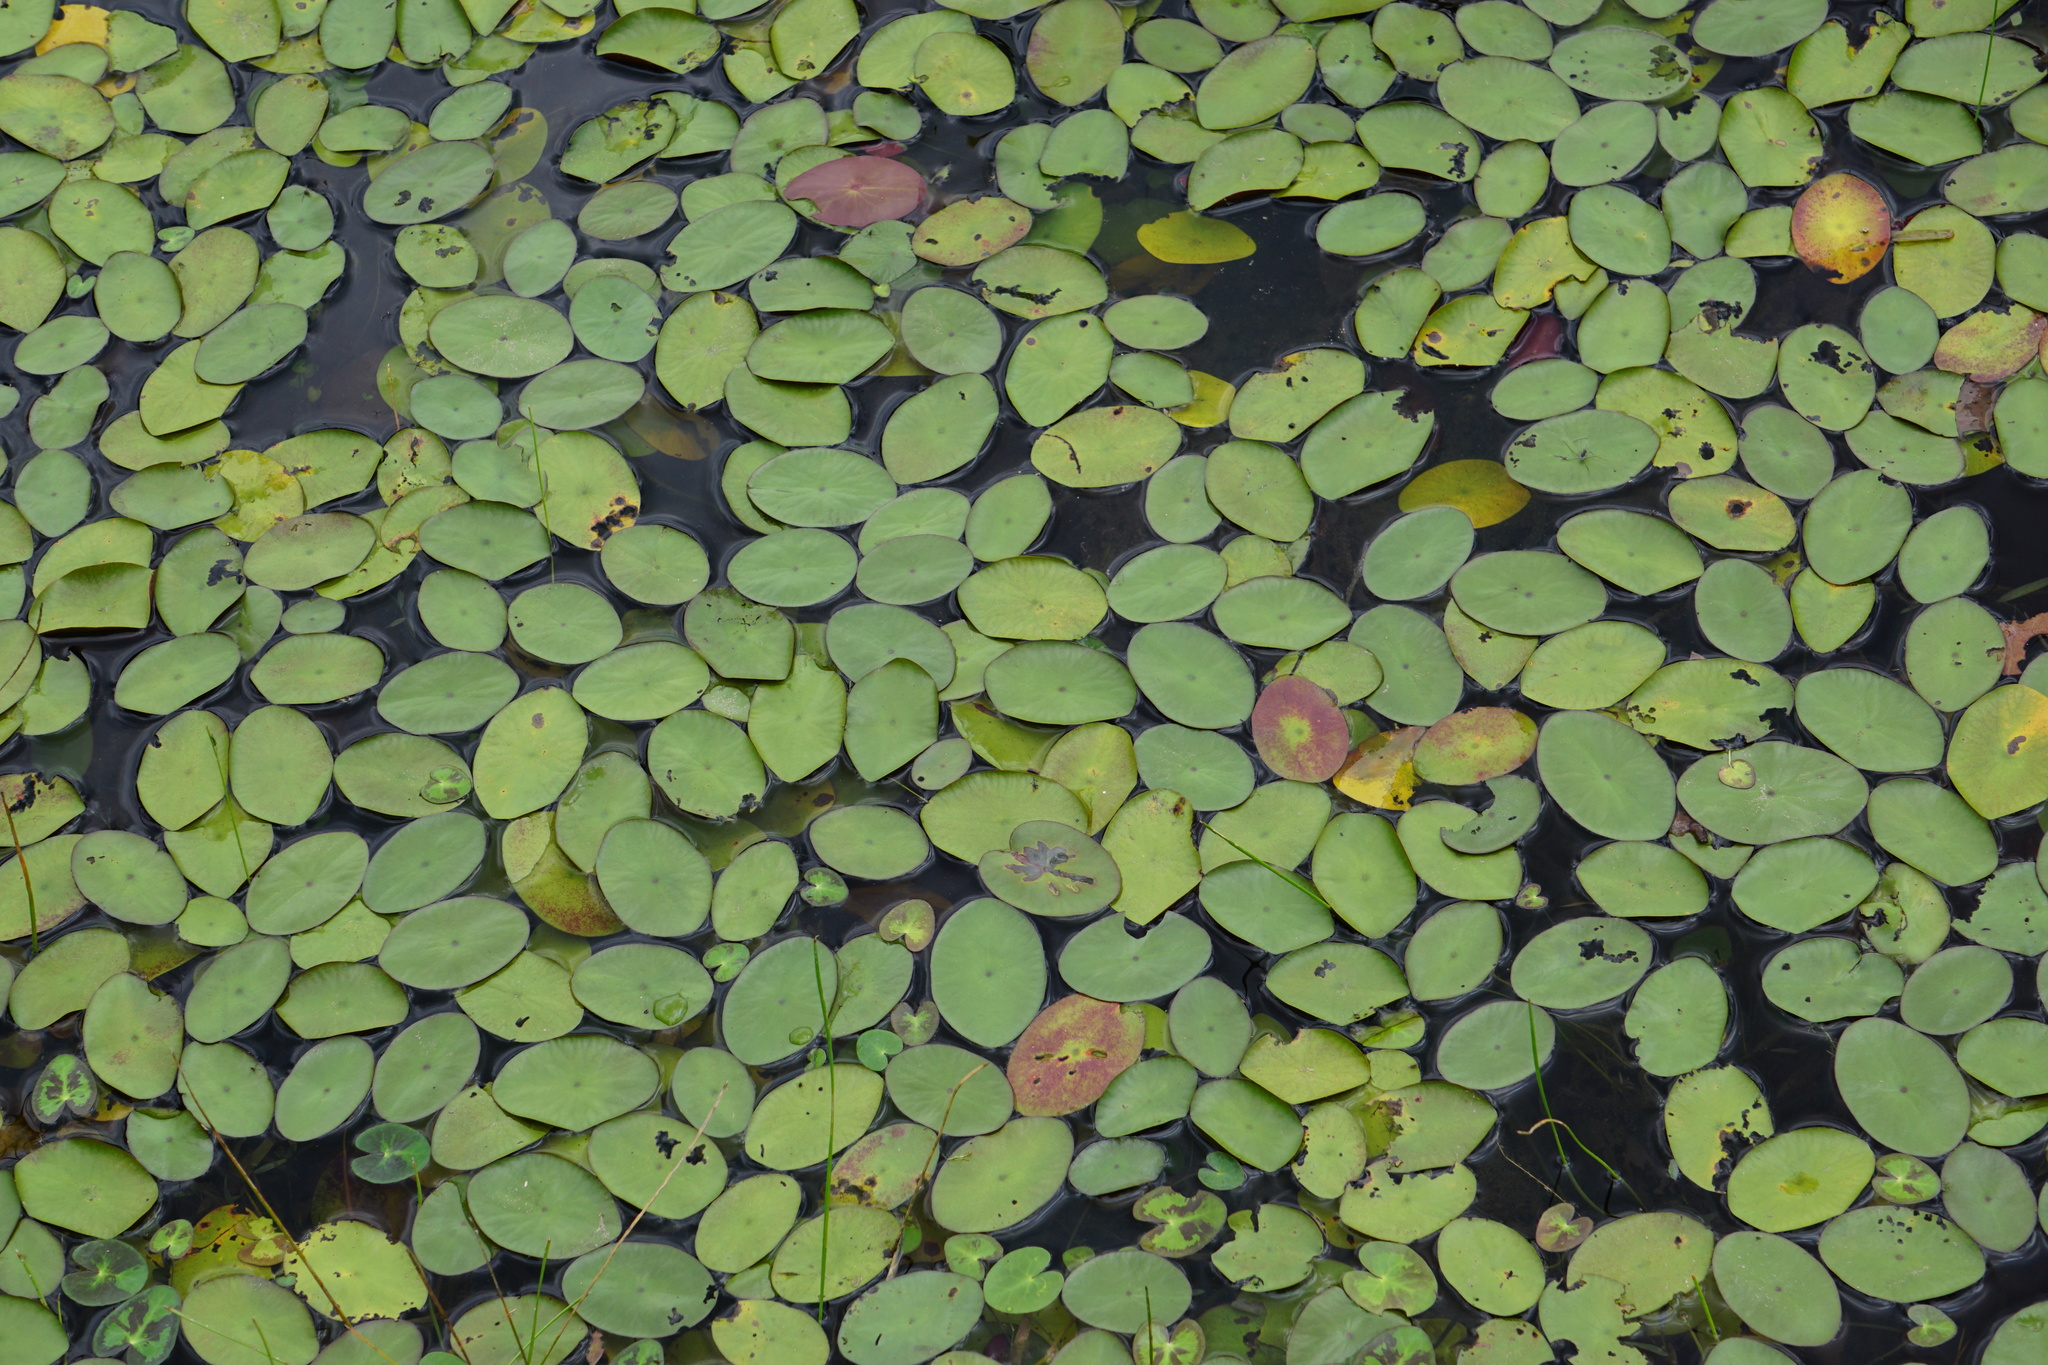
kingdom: Plantae
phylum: Tracheophyta
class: Magnoliopsida
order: Nymphaeales
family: Cabombaceae
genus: Brasenia
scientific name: Brasenia schreberi
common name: Water-shield
